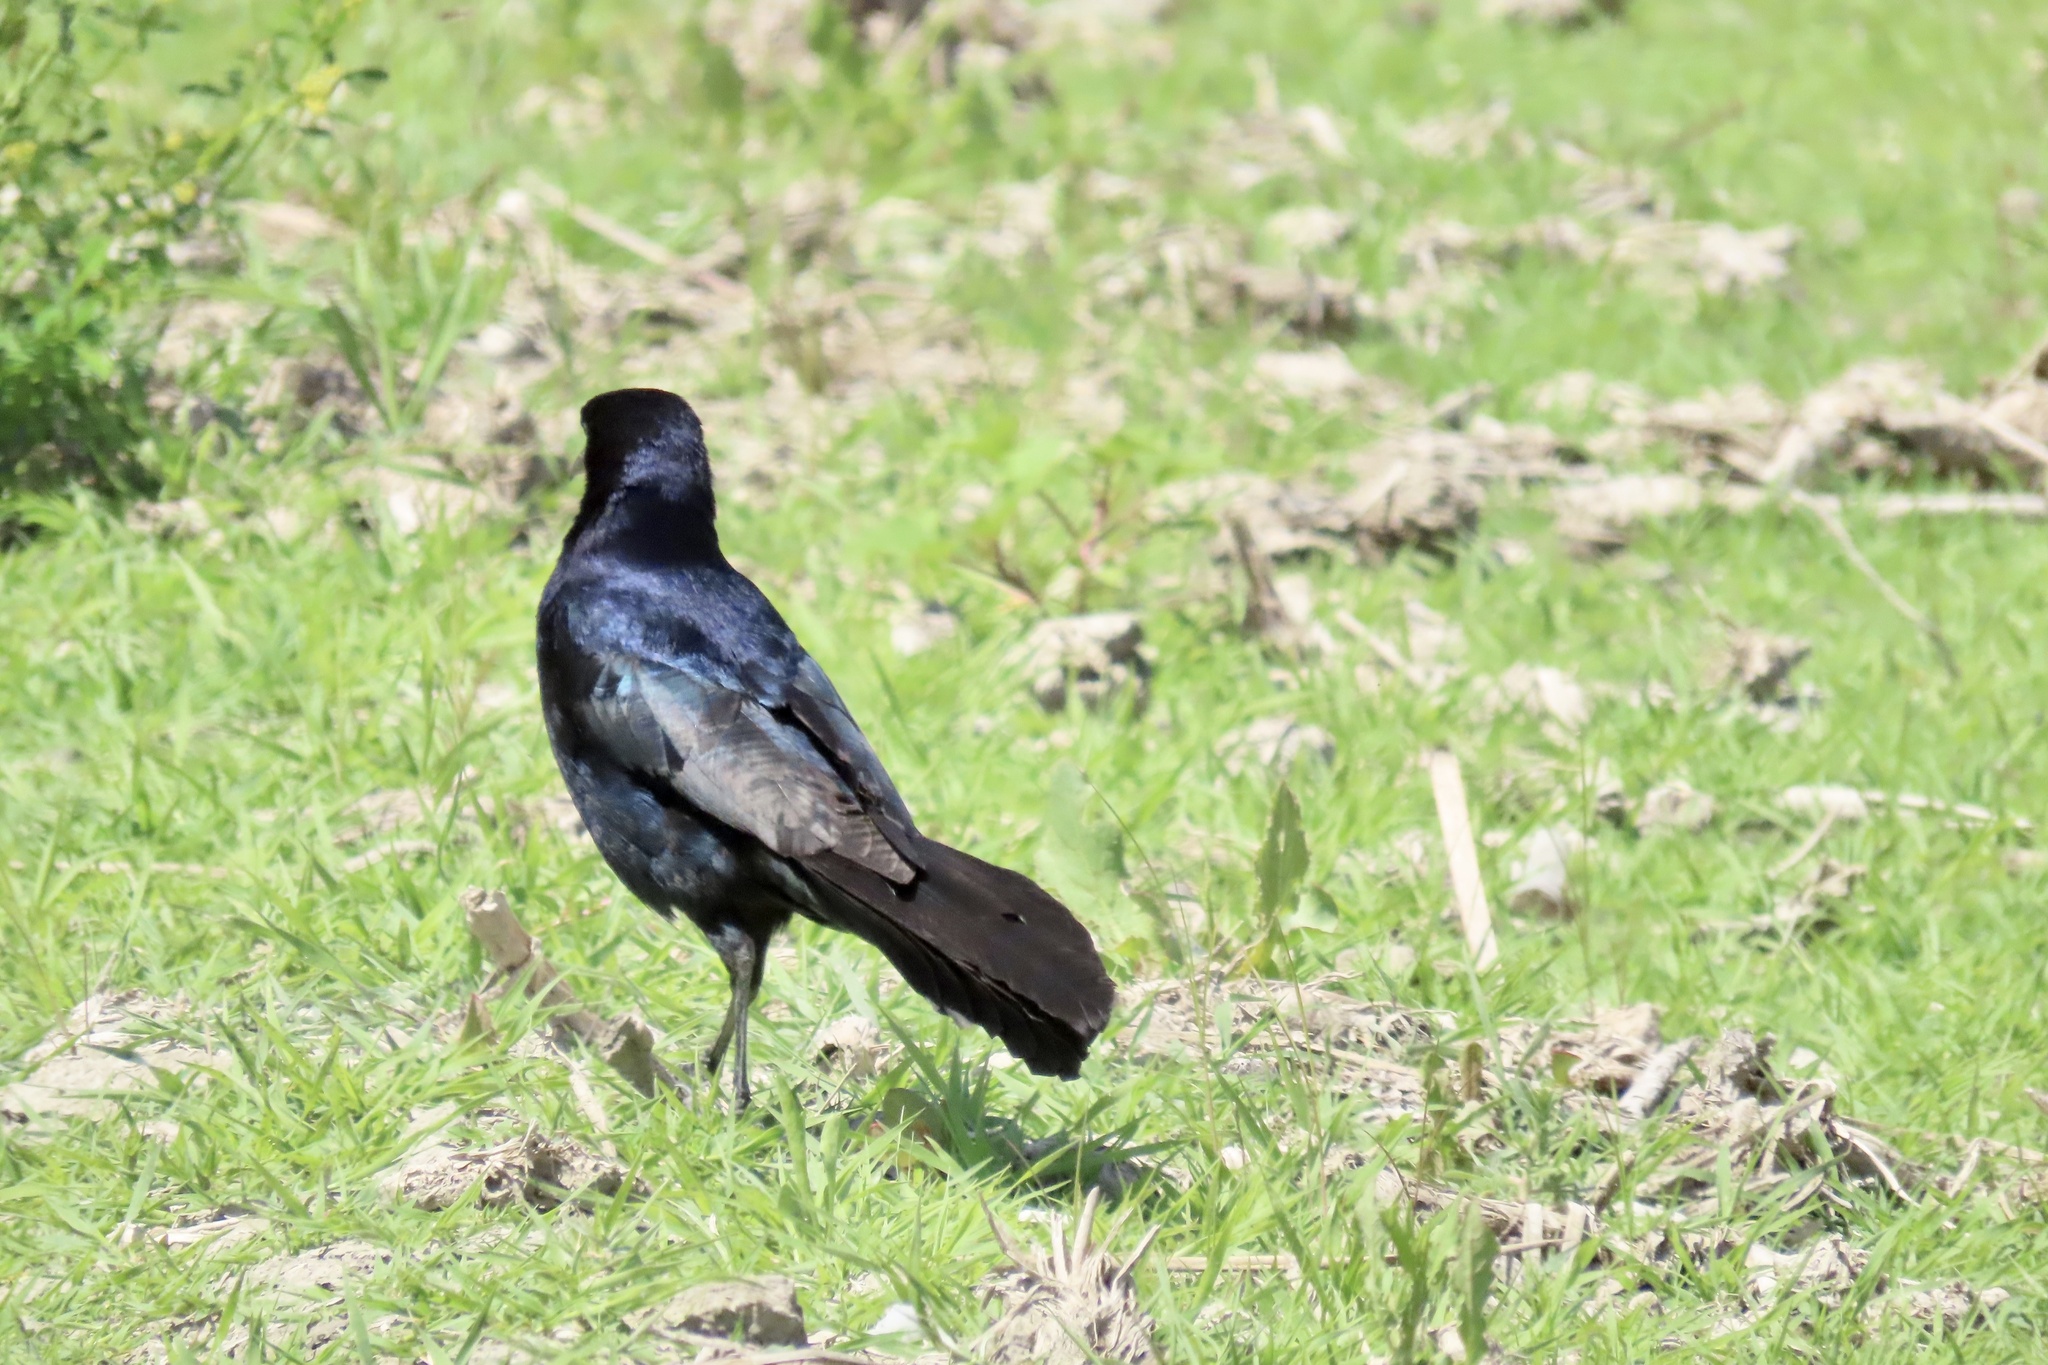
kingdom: Animalia
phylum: Chordata
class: Aves
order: Passeriformes
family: Icteridae
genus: Quiscalus
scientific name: Quiscalus mexicanus
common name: Great-tailed grackle
